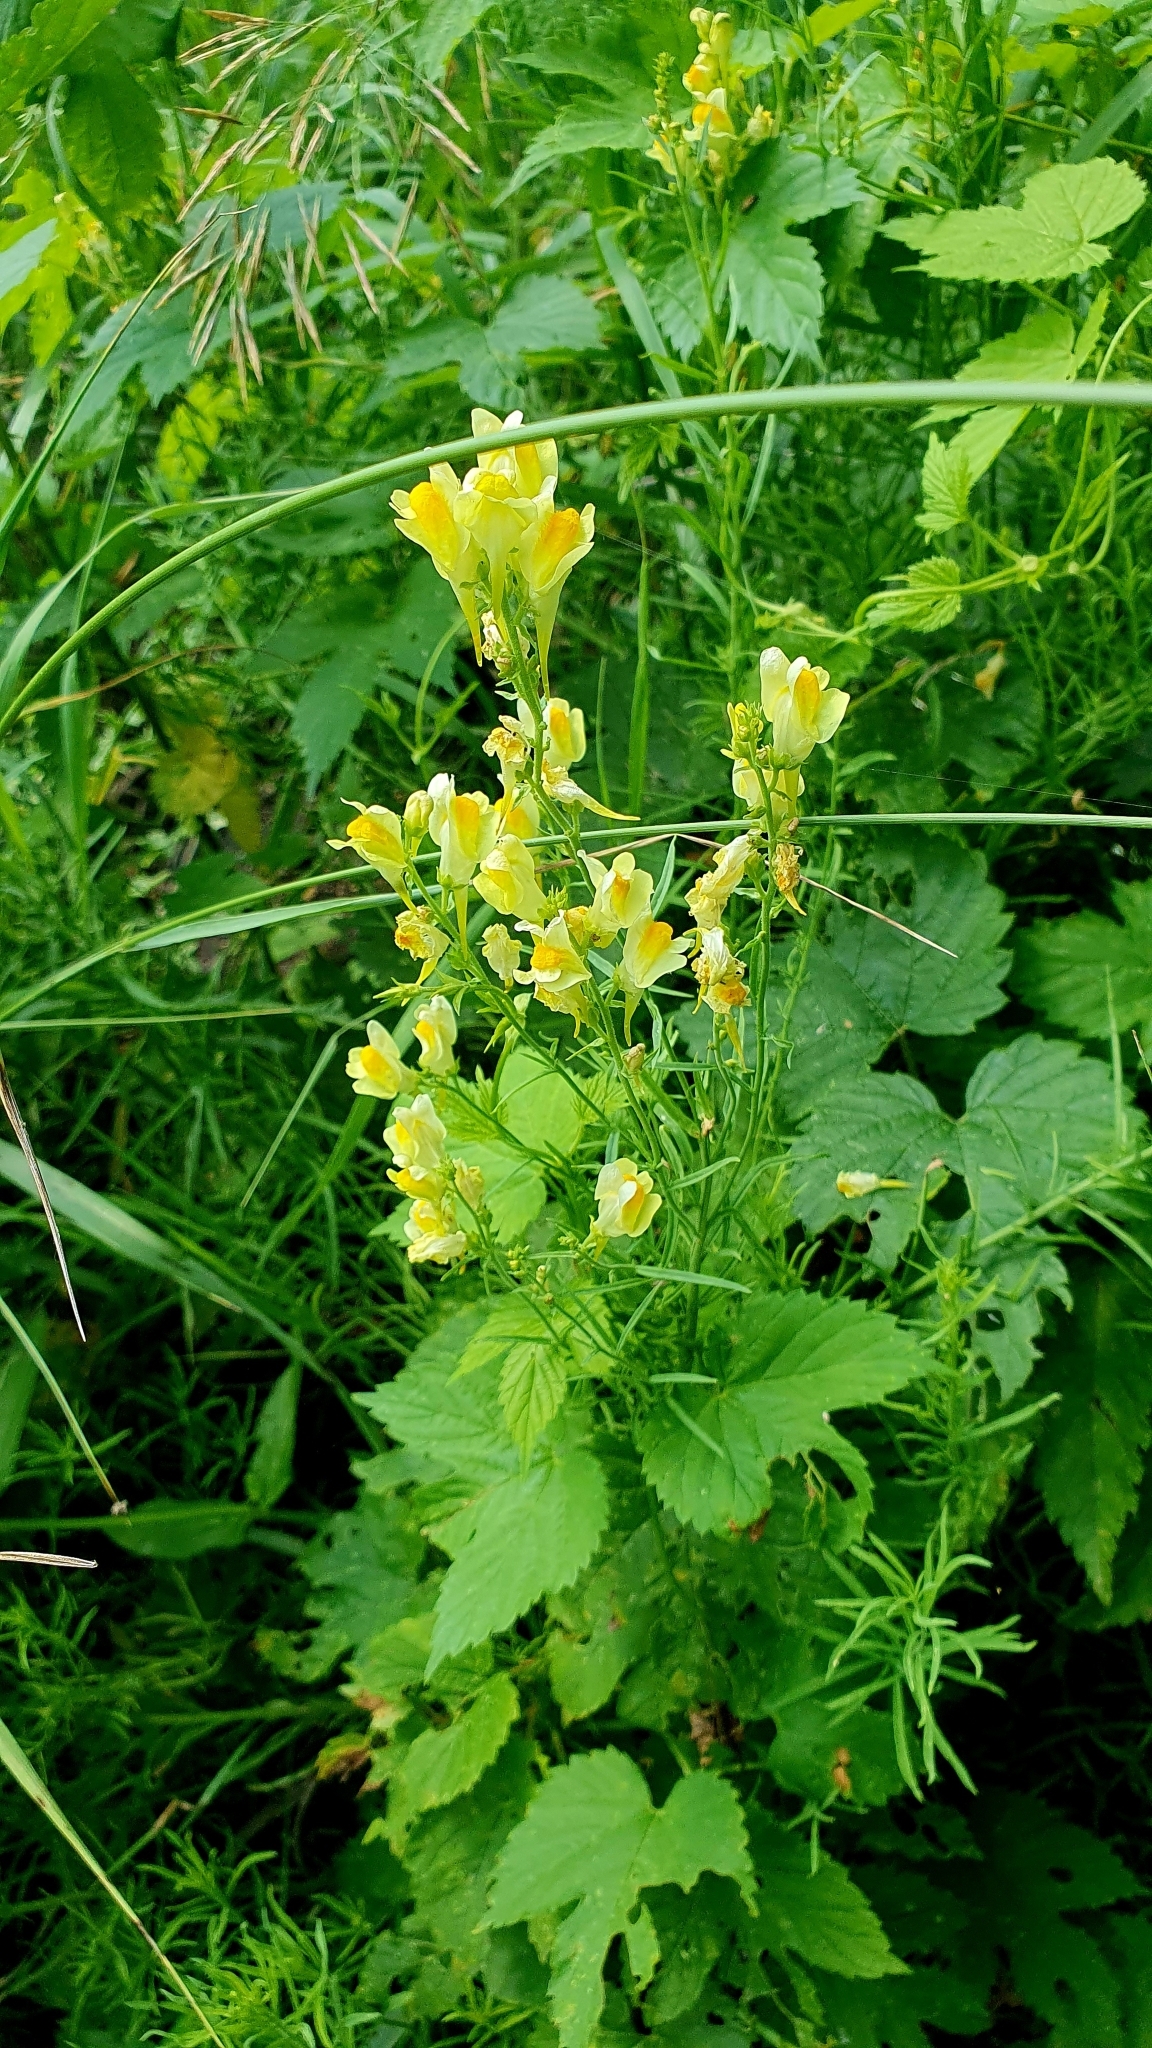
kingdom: Plantae
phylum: Tracheophyta
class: Magnoliopsida
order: Lamiales
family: Plantaginaceae
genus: Linaria
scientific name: Linaria vulgaris
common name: Butter and eggs
